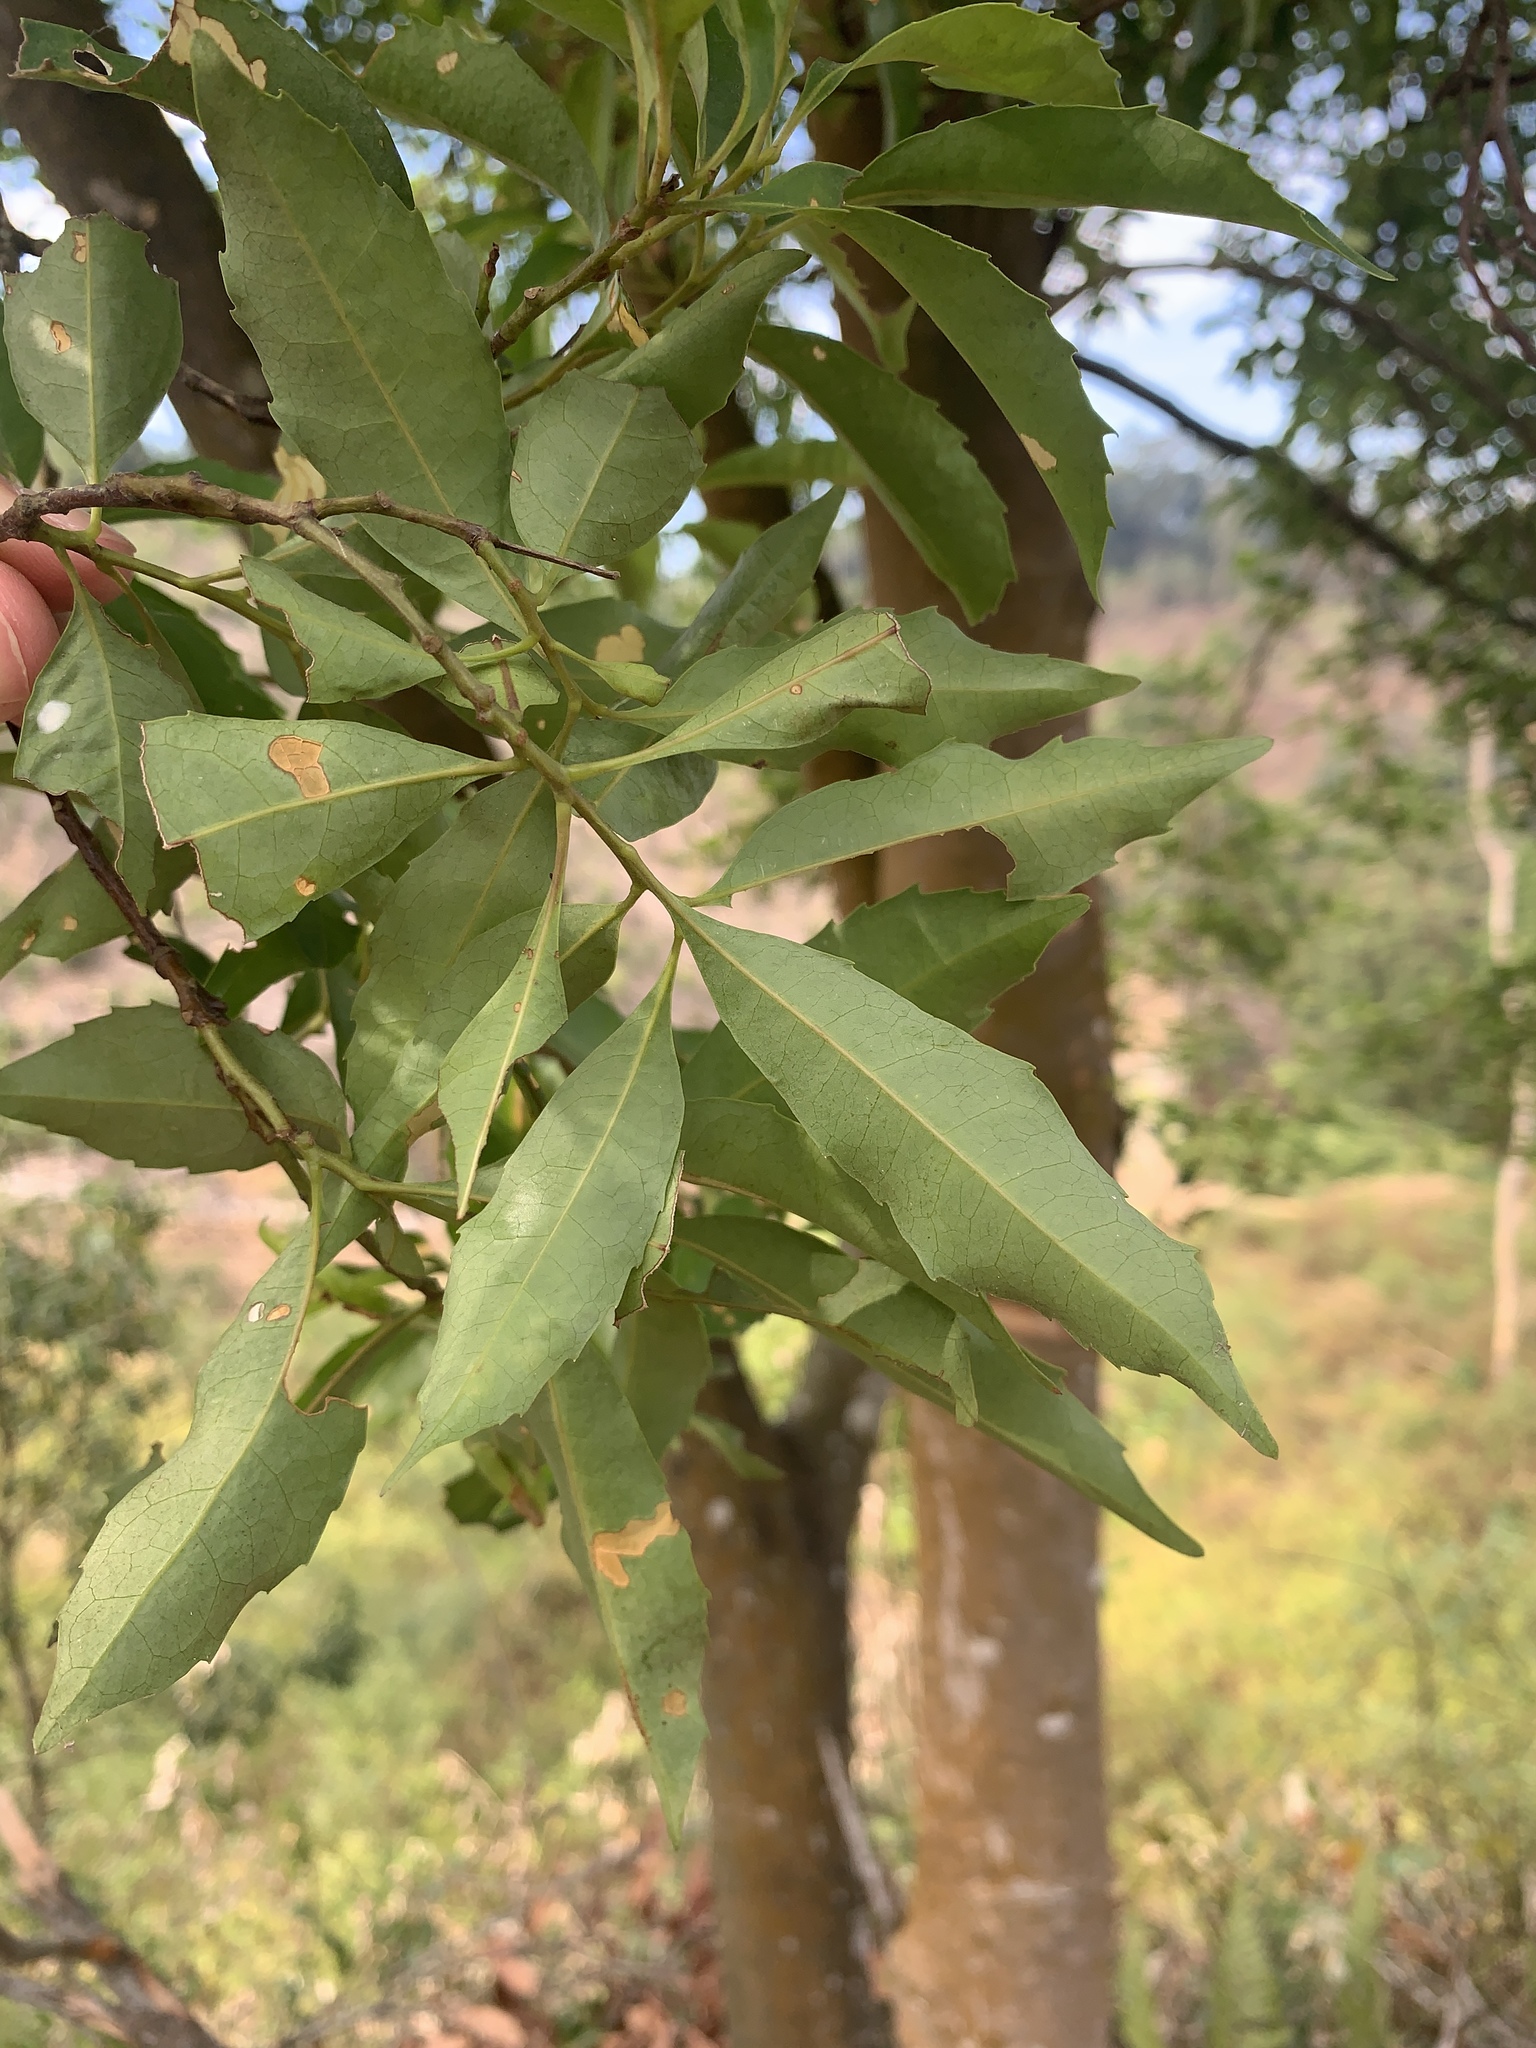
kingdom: Plantae
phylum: Tracheophyta
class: Magnoliopsida
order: Proteales
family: Proteaceae
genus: Helicia
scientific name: Helicia cochinchinensis
